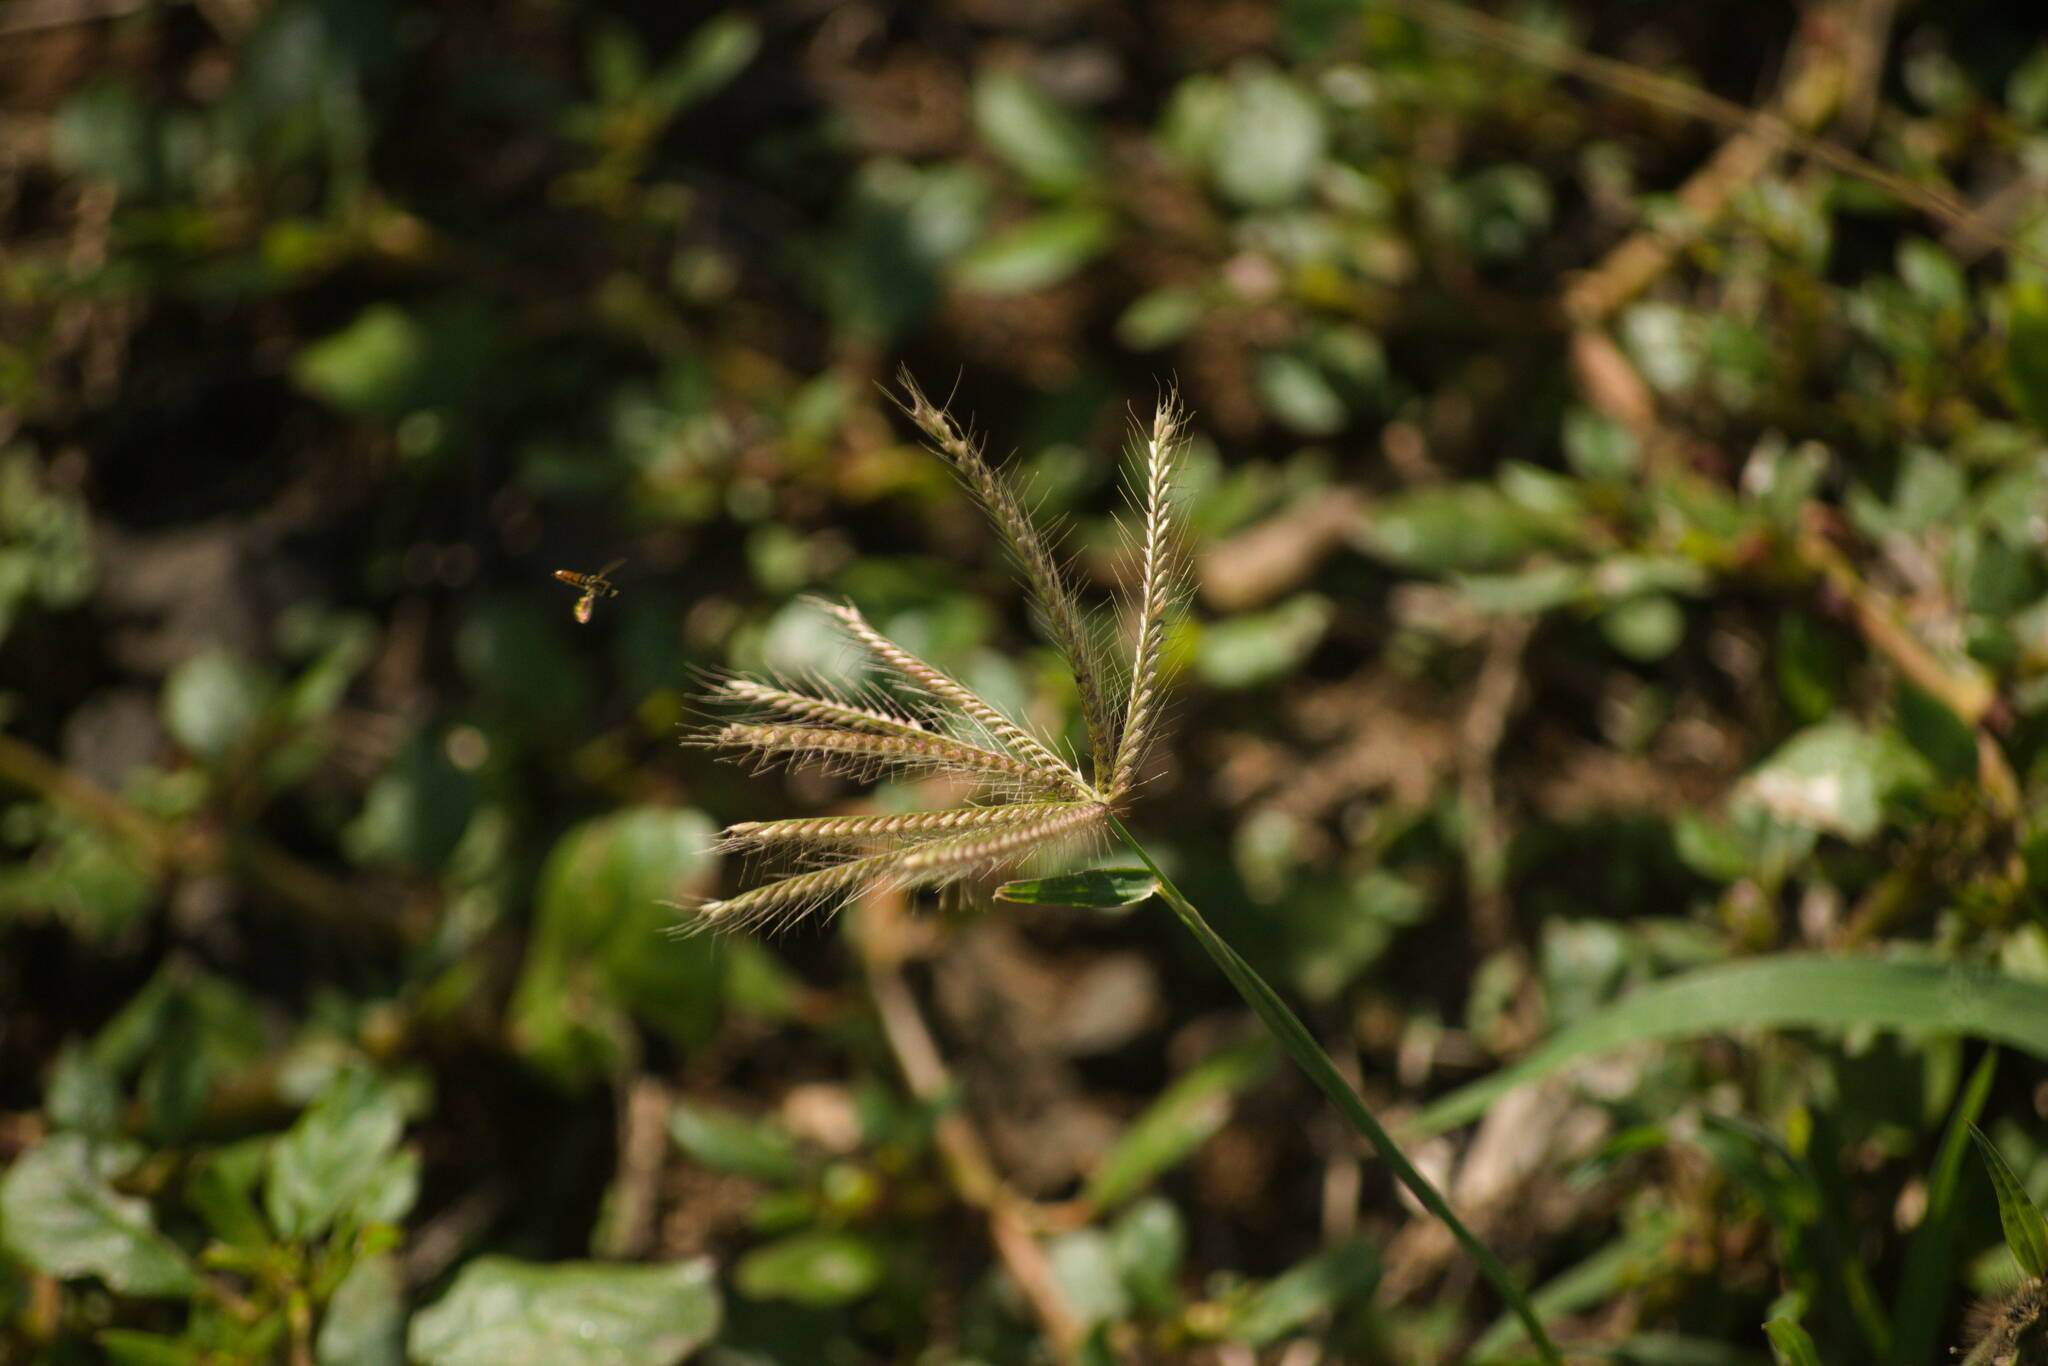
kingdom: Plantae
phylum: Tracheophyta
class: Liliopsida
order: Poales
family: Poaceae
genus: Chloris
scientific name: Chloris barbata
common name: Swollen fingergrass
